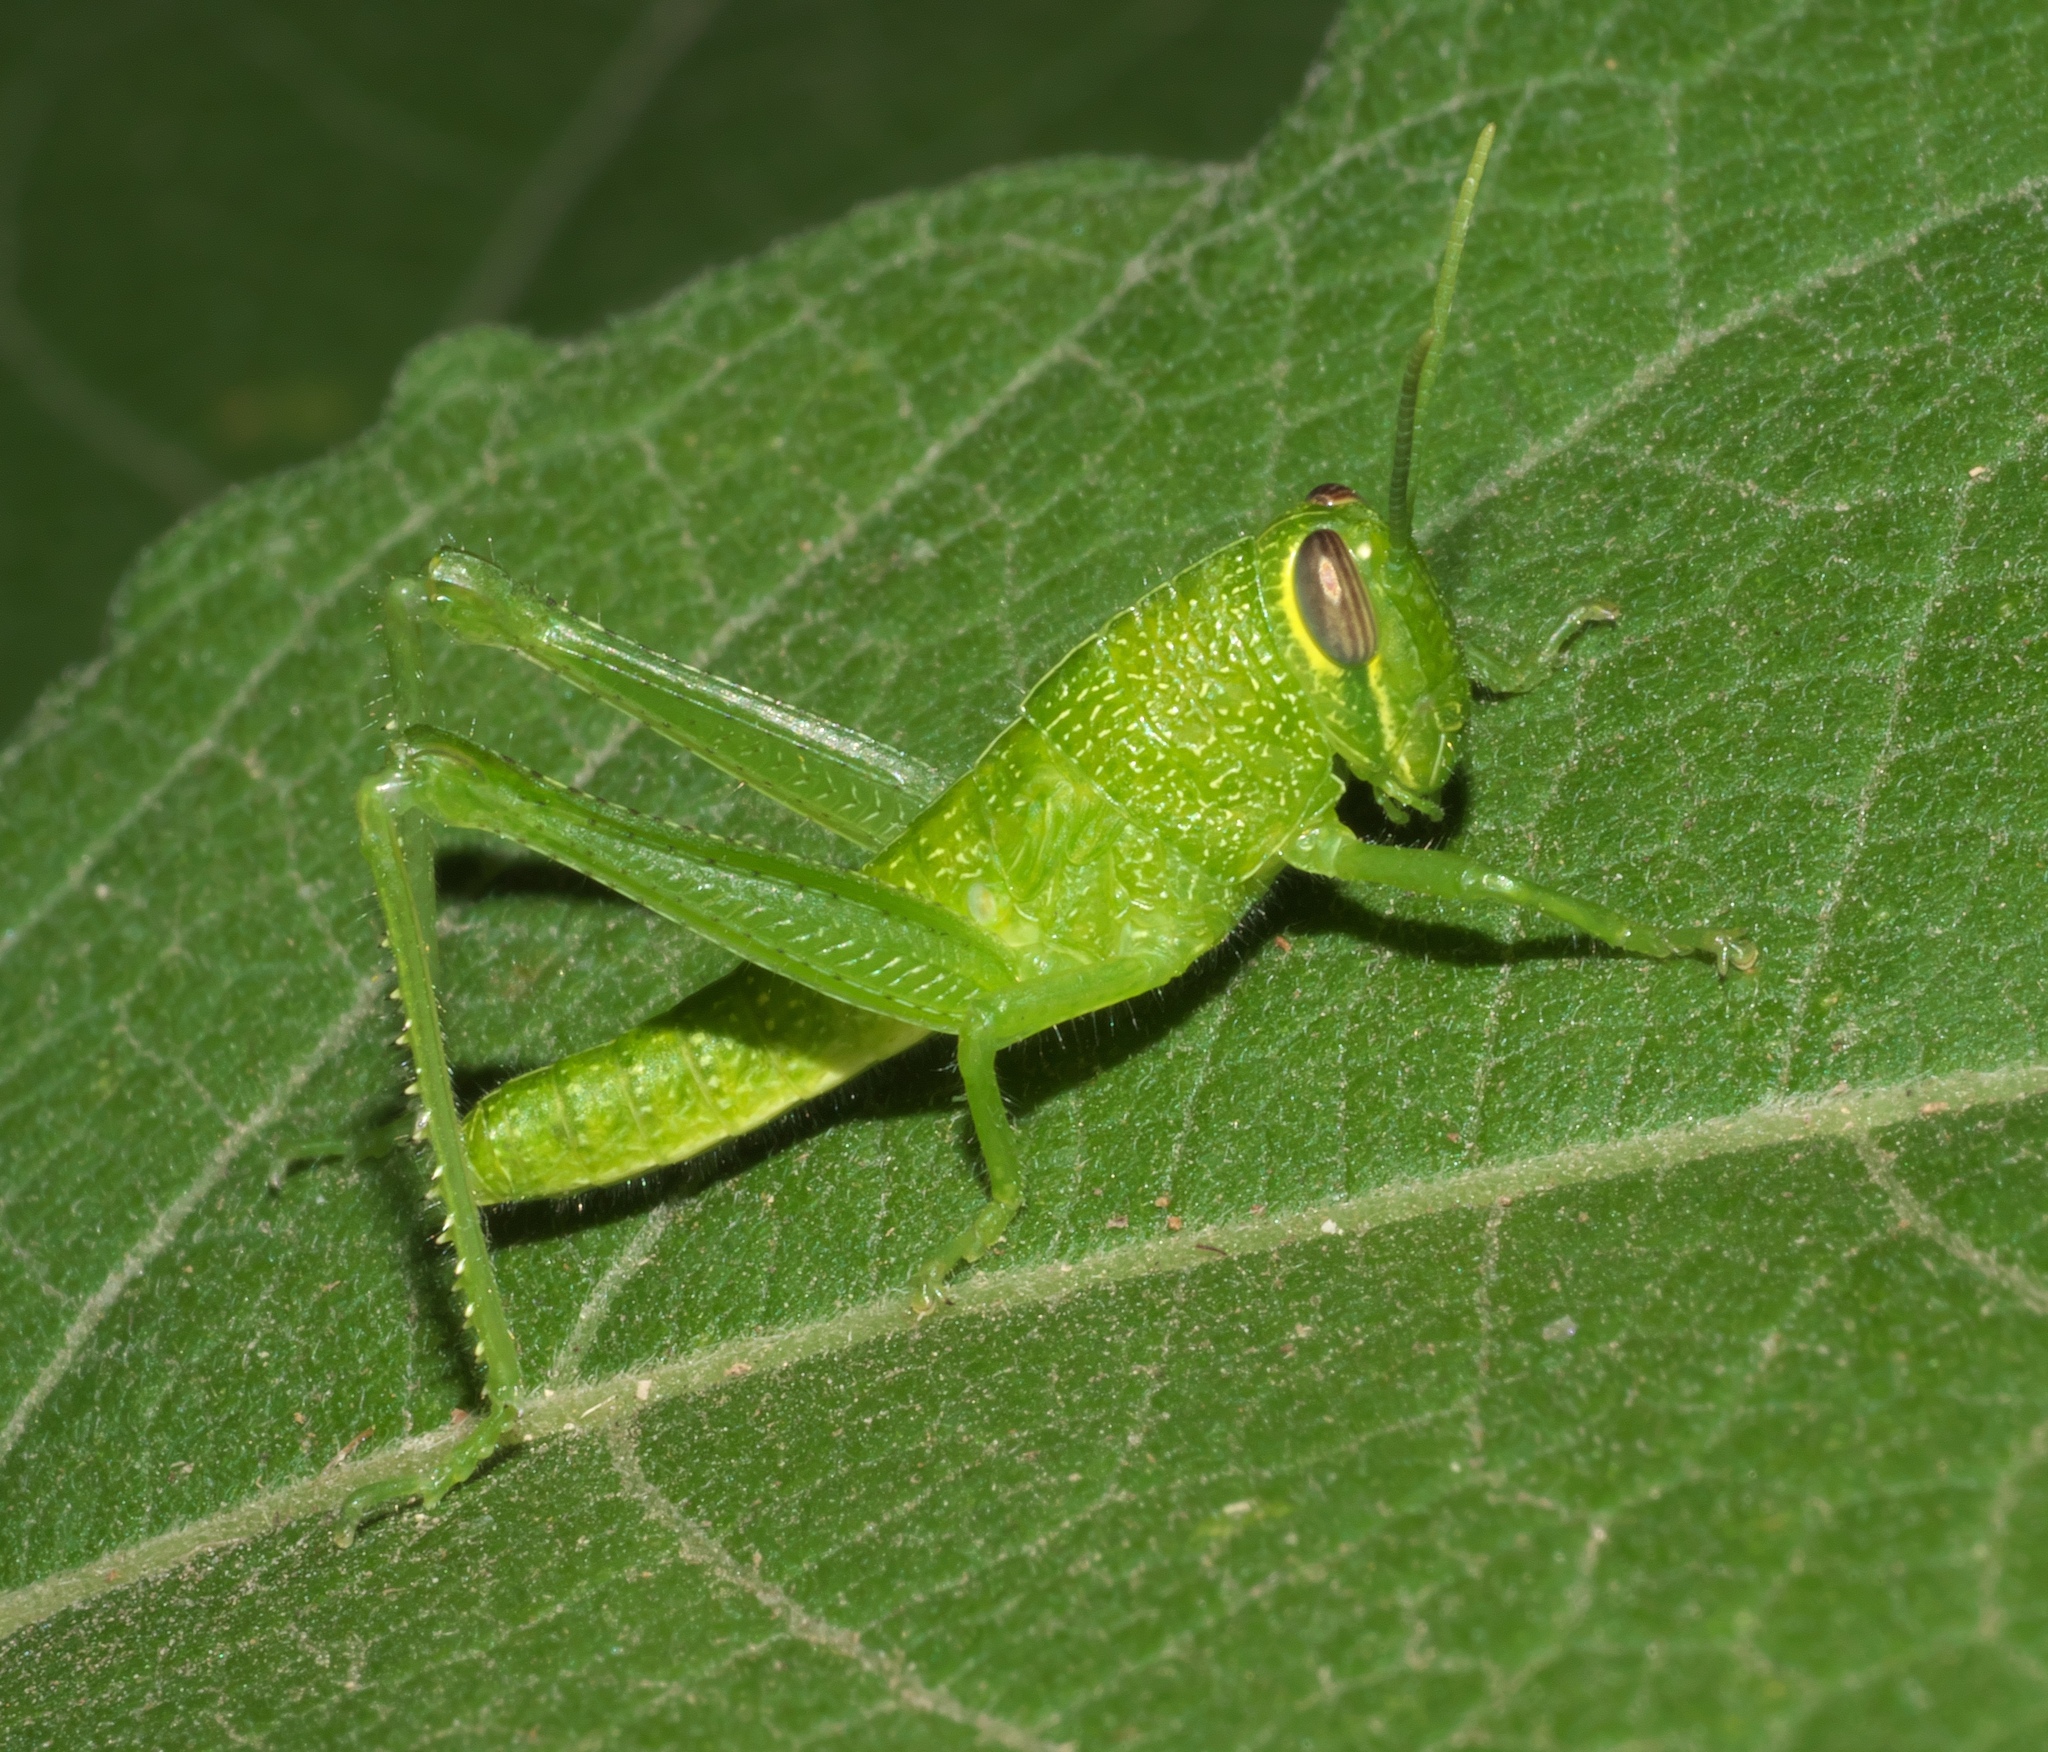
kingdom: Animalia
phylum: Arthropoda
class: Insecta
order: Orthoptera
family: Acrididae
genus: Schistocerca
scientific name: Schistocerca obscura
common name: Obscure bird grasshopper
